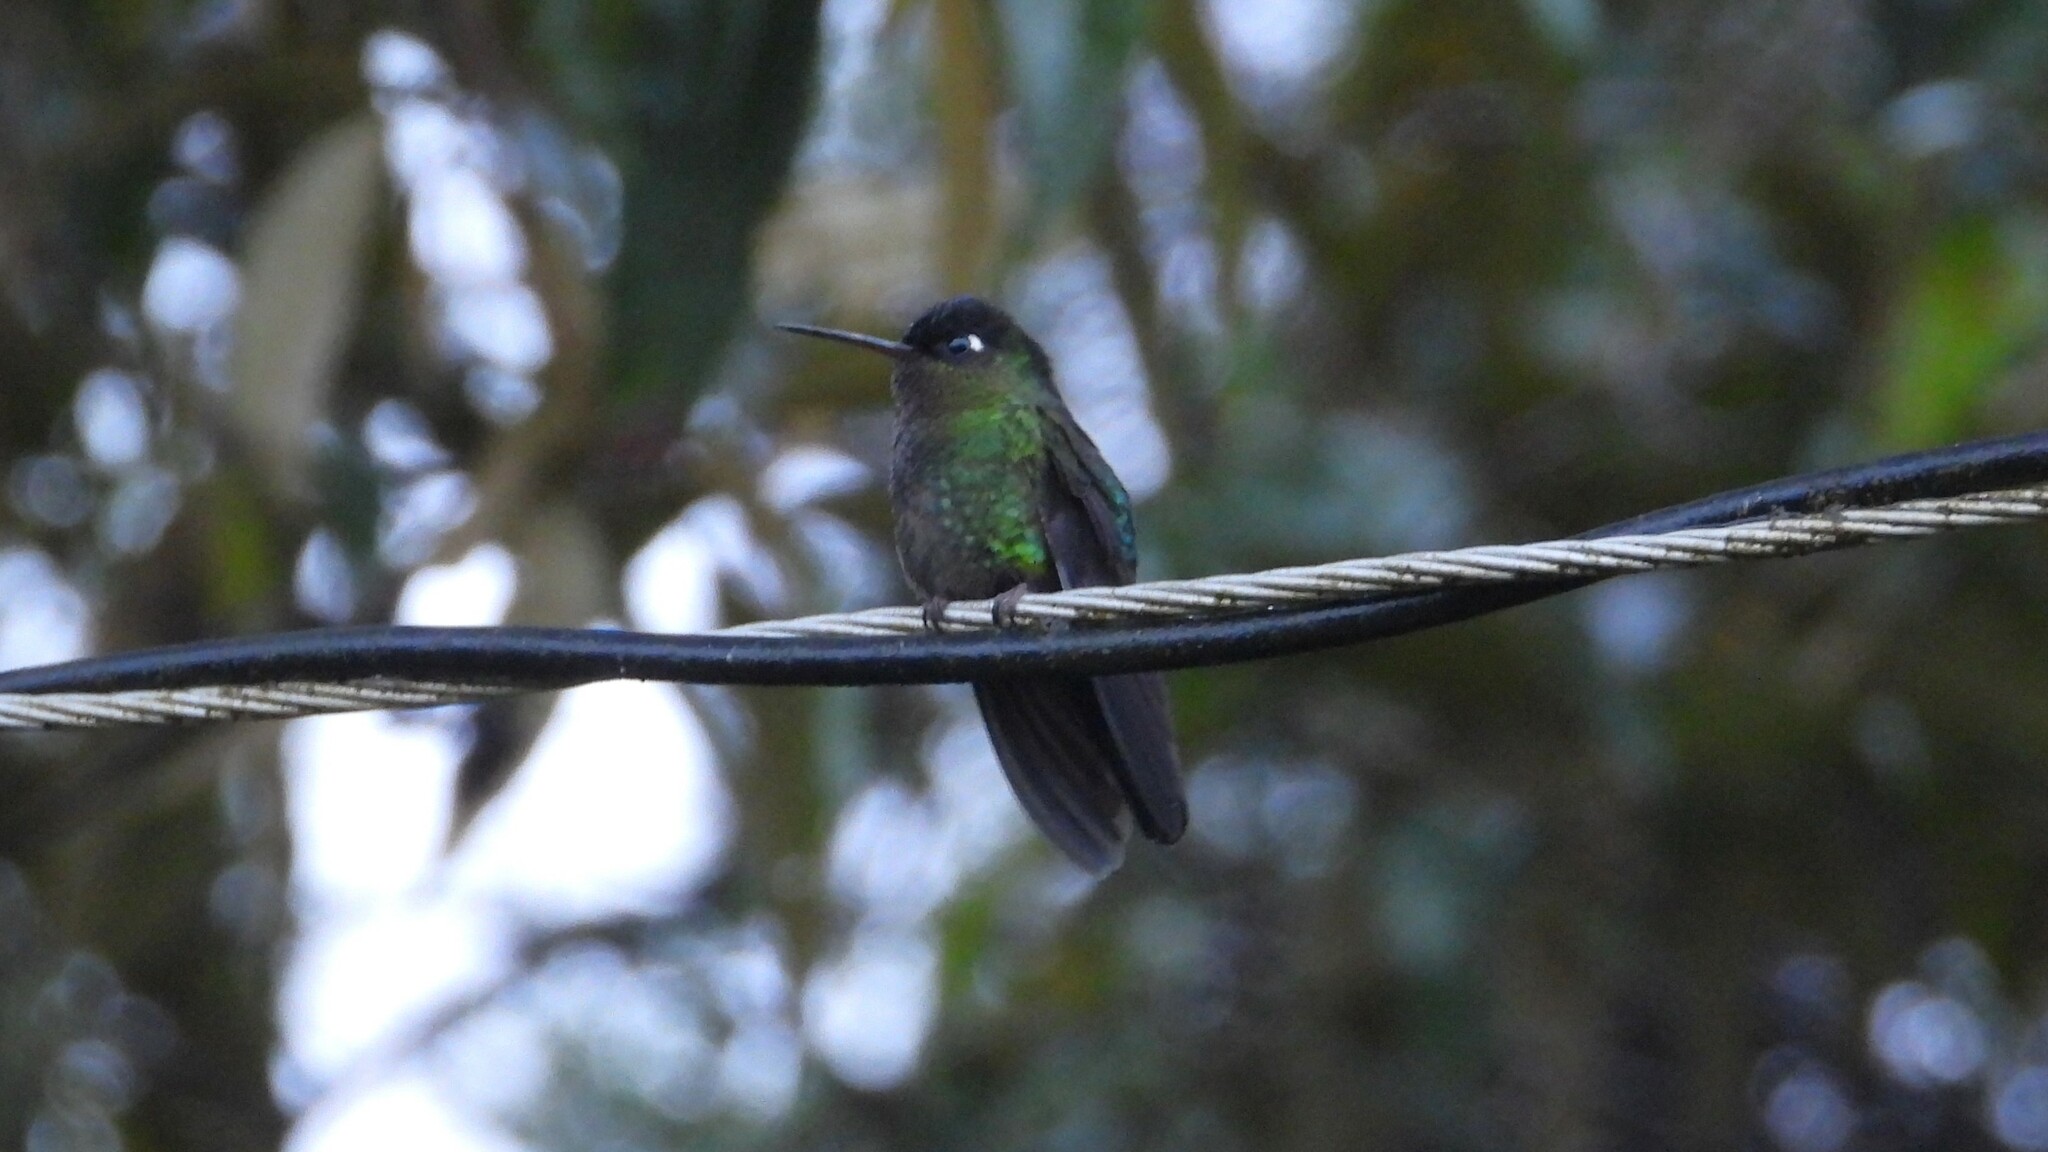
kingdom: Animalia
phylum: Chordata
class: Aves
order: Apodiformes
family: Trochilidae
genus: Panterpe
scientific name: Panterpe insignis
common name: Fiery-throated hummingbird
